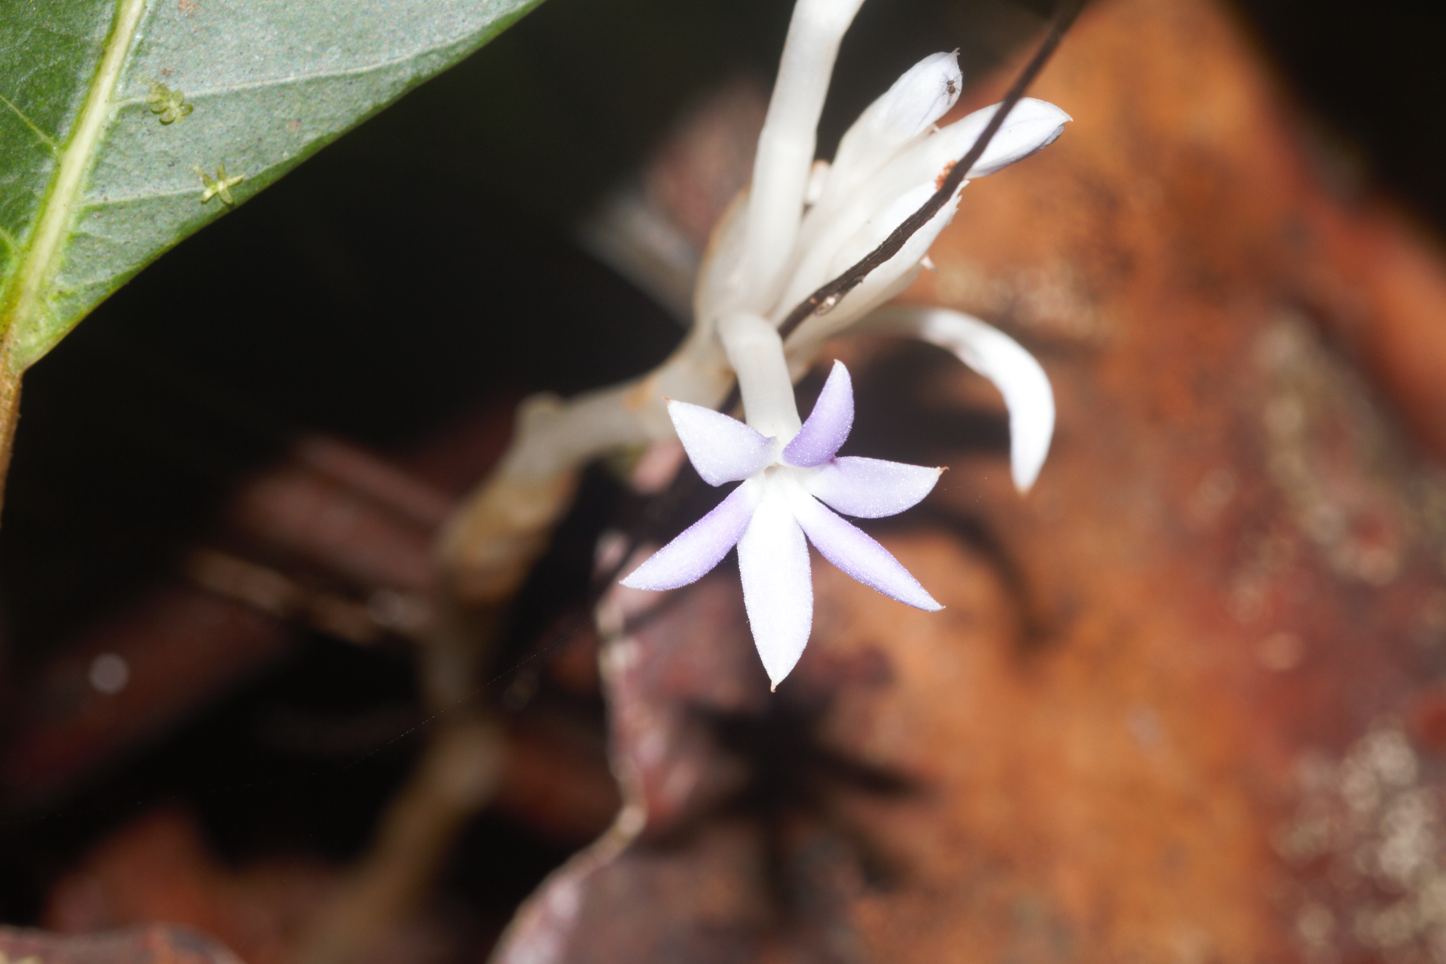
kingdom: Plantae
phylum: Tracheophyta
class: Liliopsida
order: Dioscoreales
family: Burmanniaceae
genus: Campylosiphon
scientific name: Campylosiphon purpurascens
